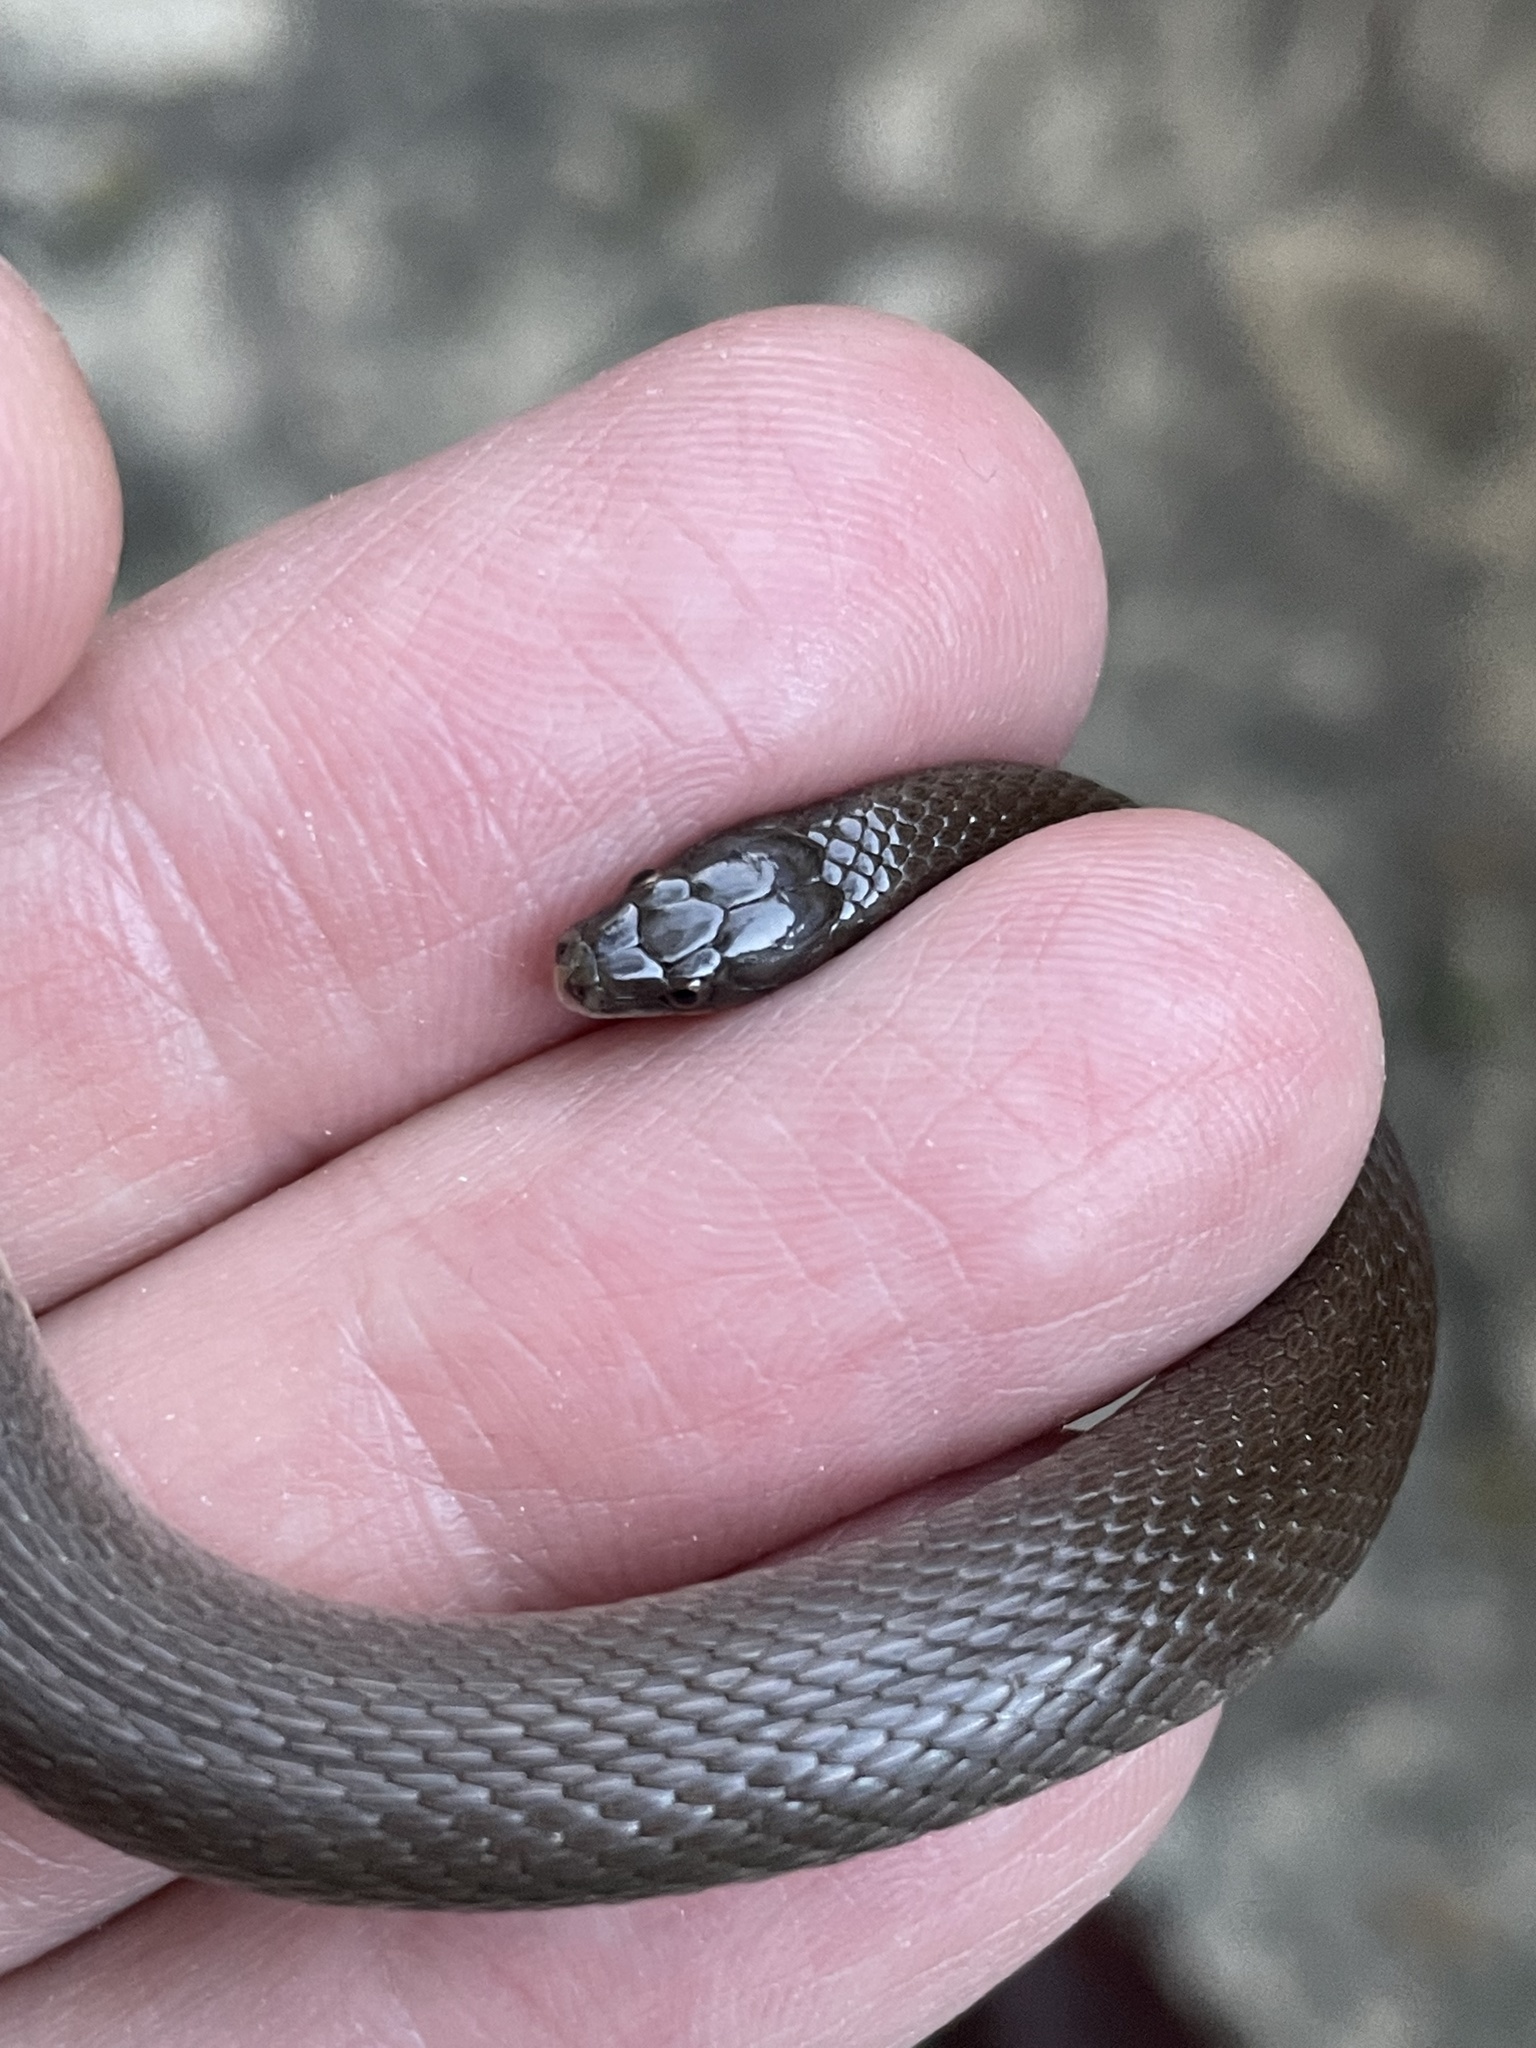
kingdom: Animalia
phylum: Chordata
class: Squamata
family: Colubridae
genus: Haldea
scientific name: Haldea striatula
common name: Rough earth snake
